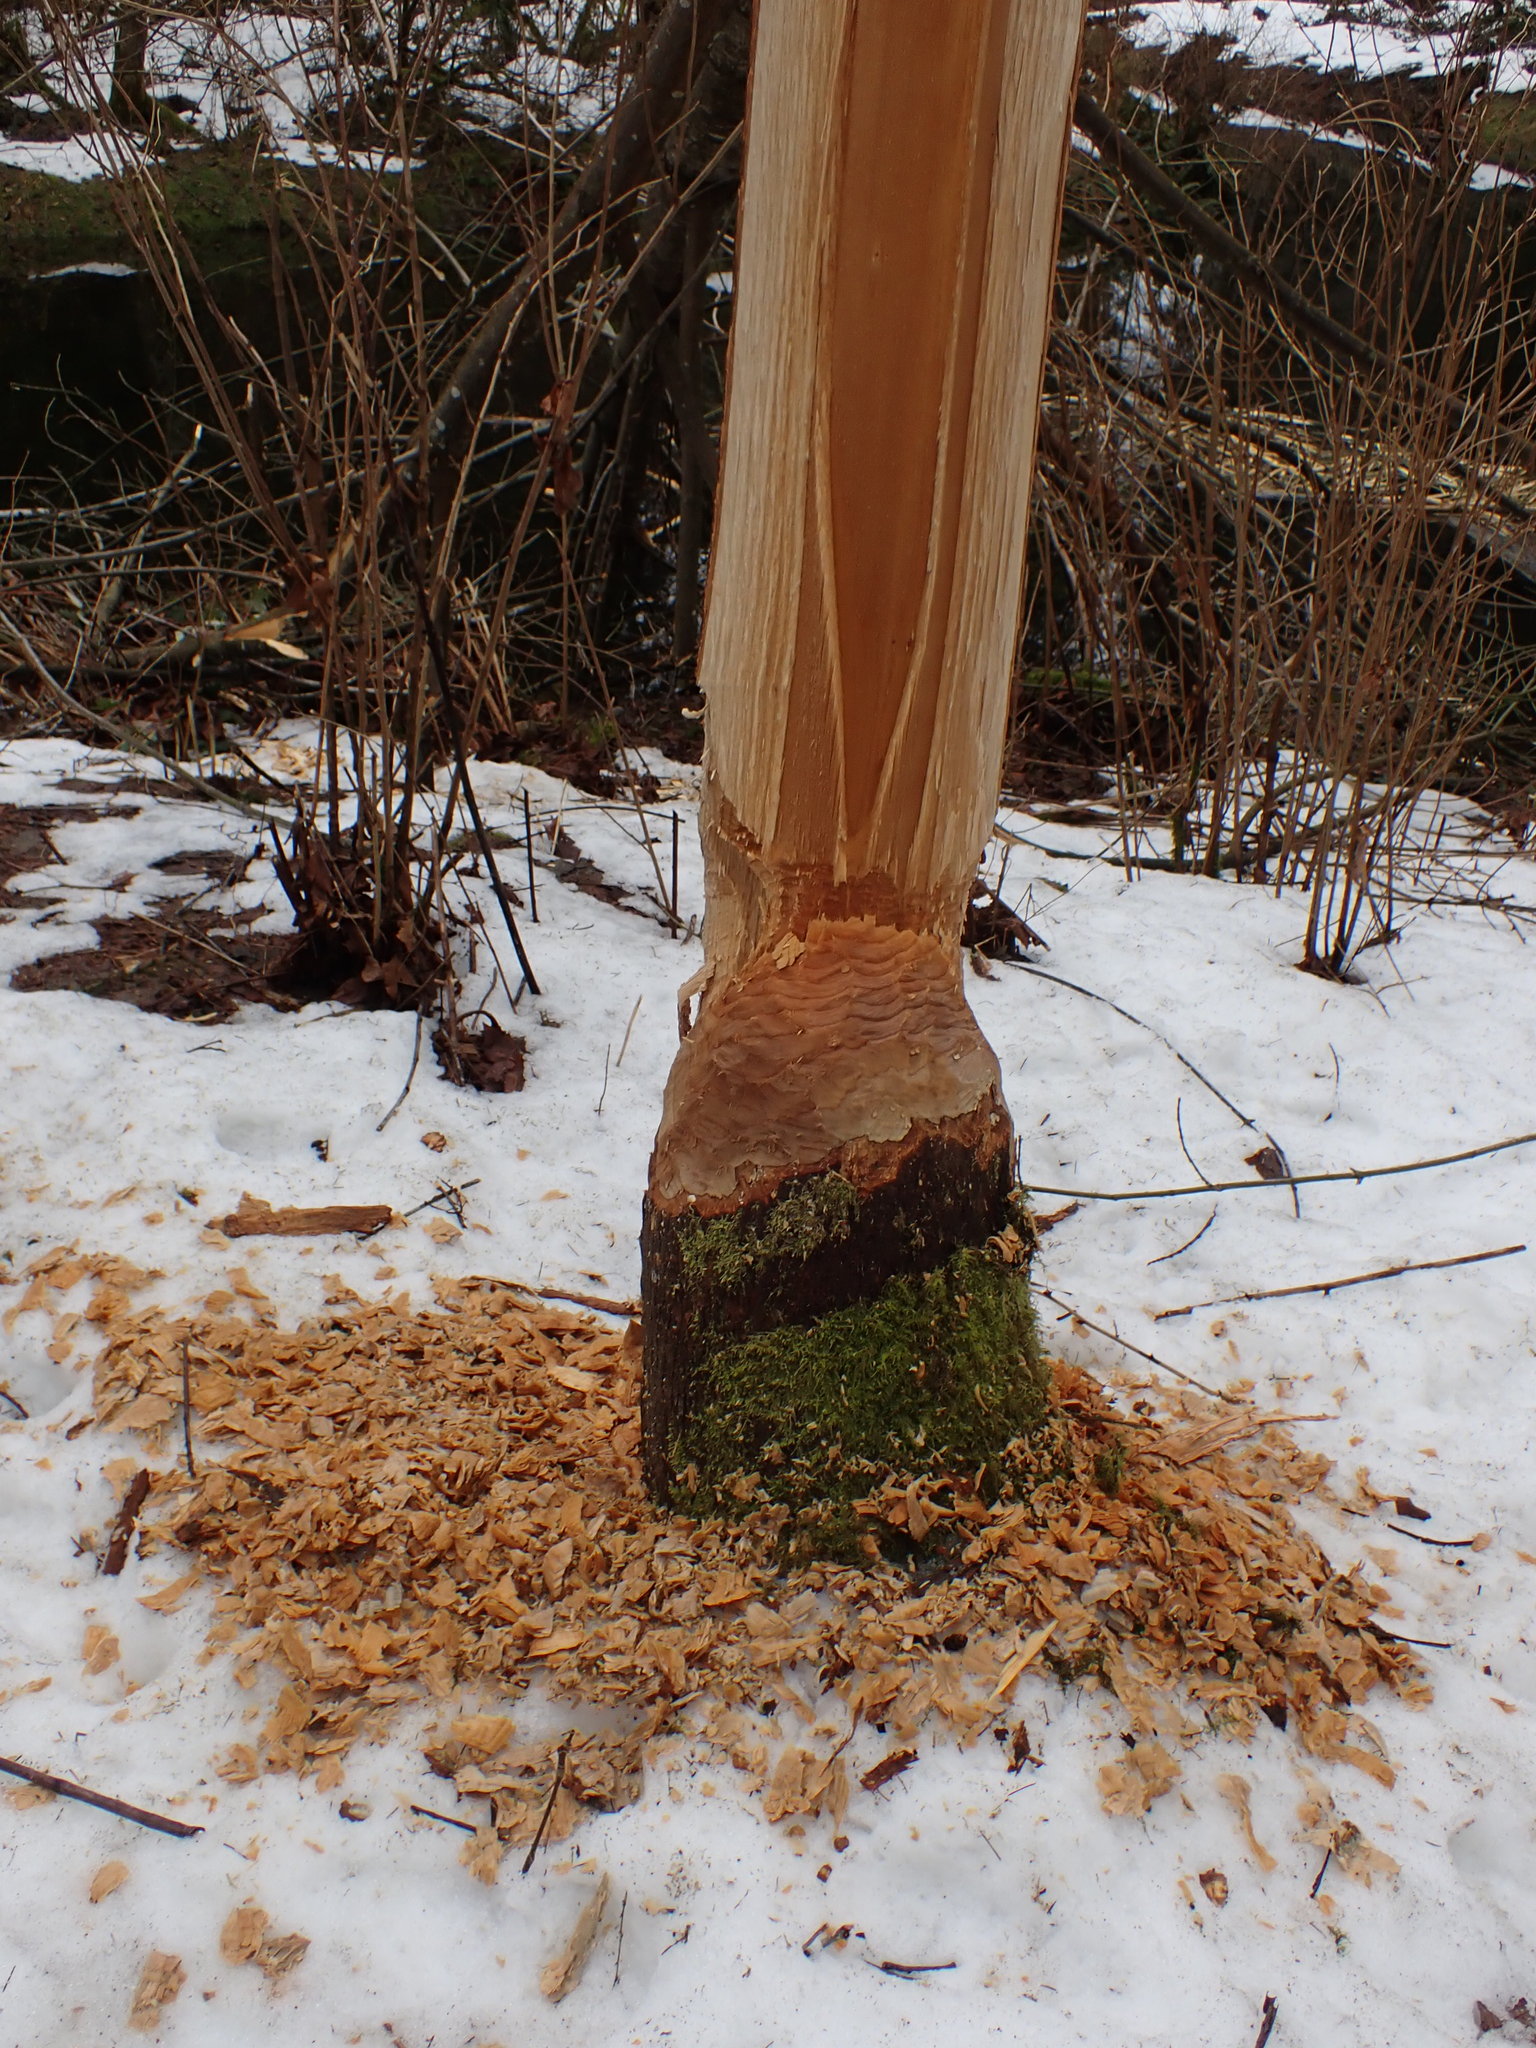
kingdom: Animalia
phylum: Chordata
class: Mammalia
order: Rodentia
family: Castoridae
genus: Castor
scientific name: Castor canadensis
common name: American beaver
